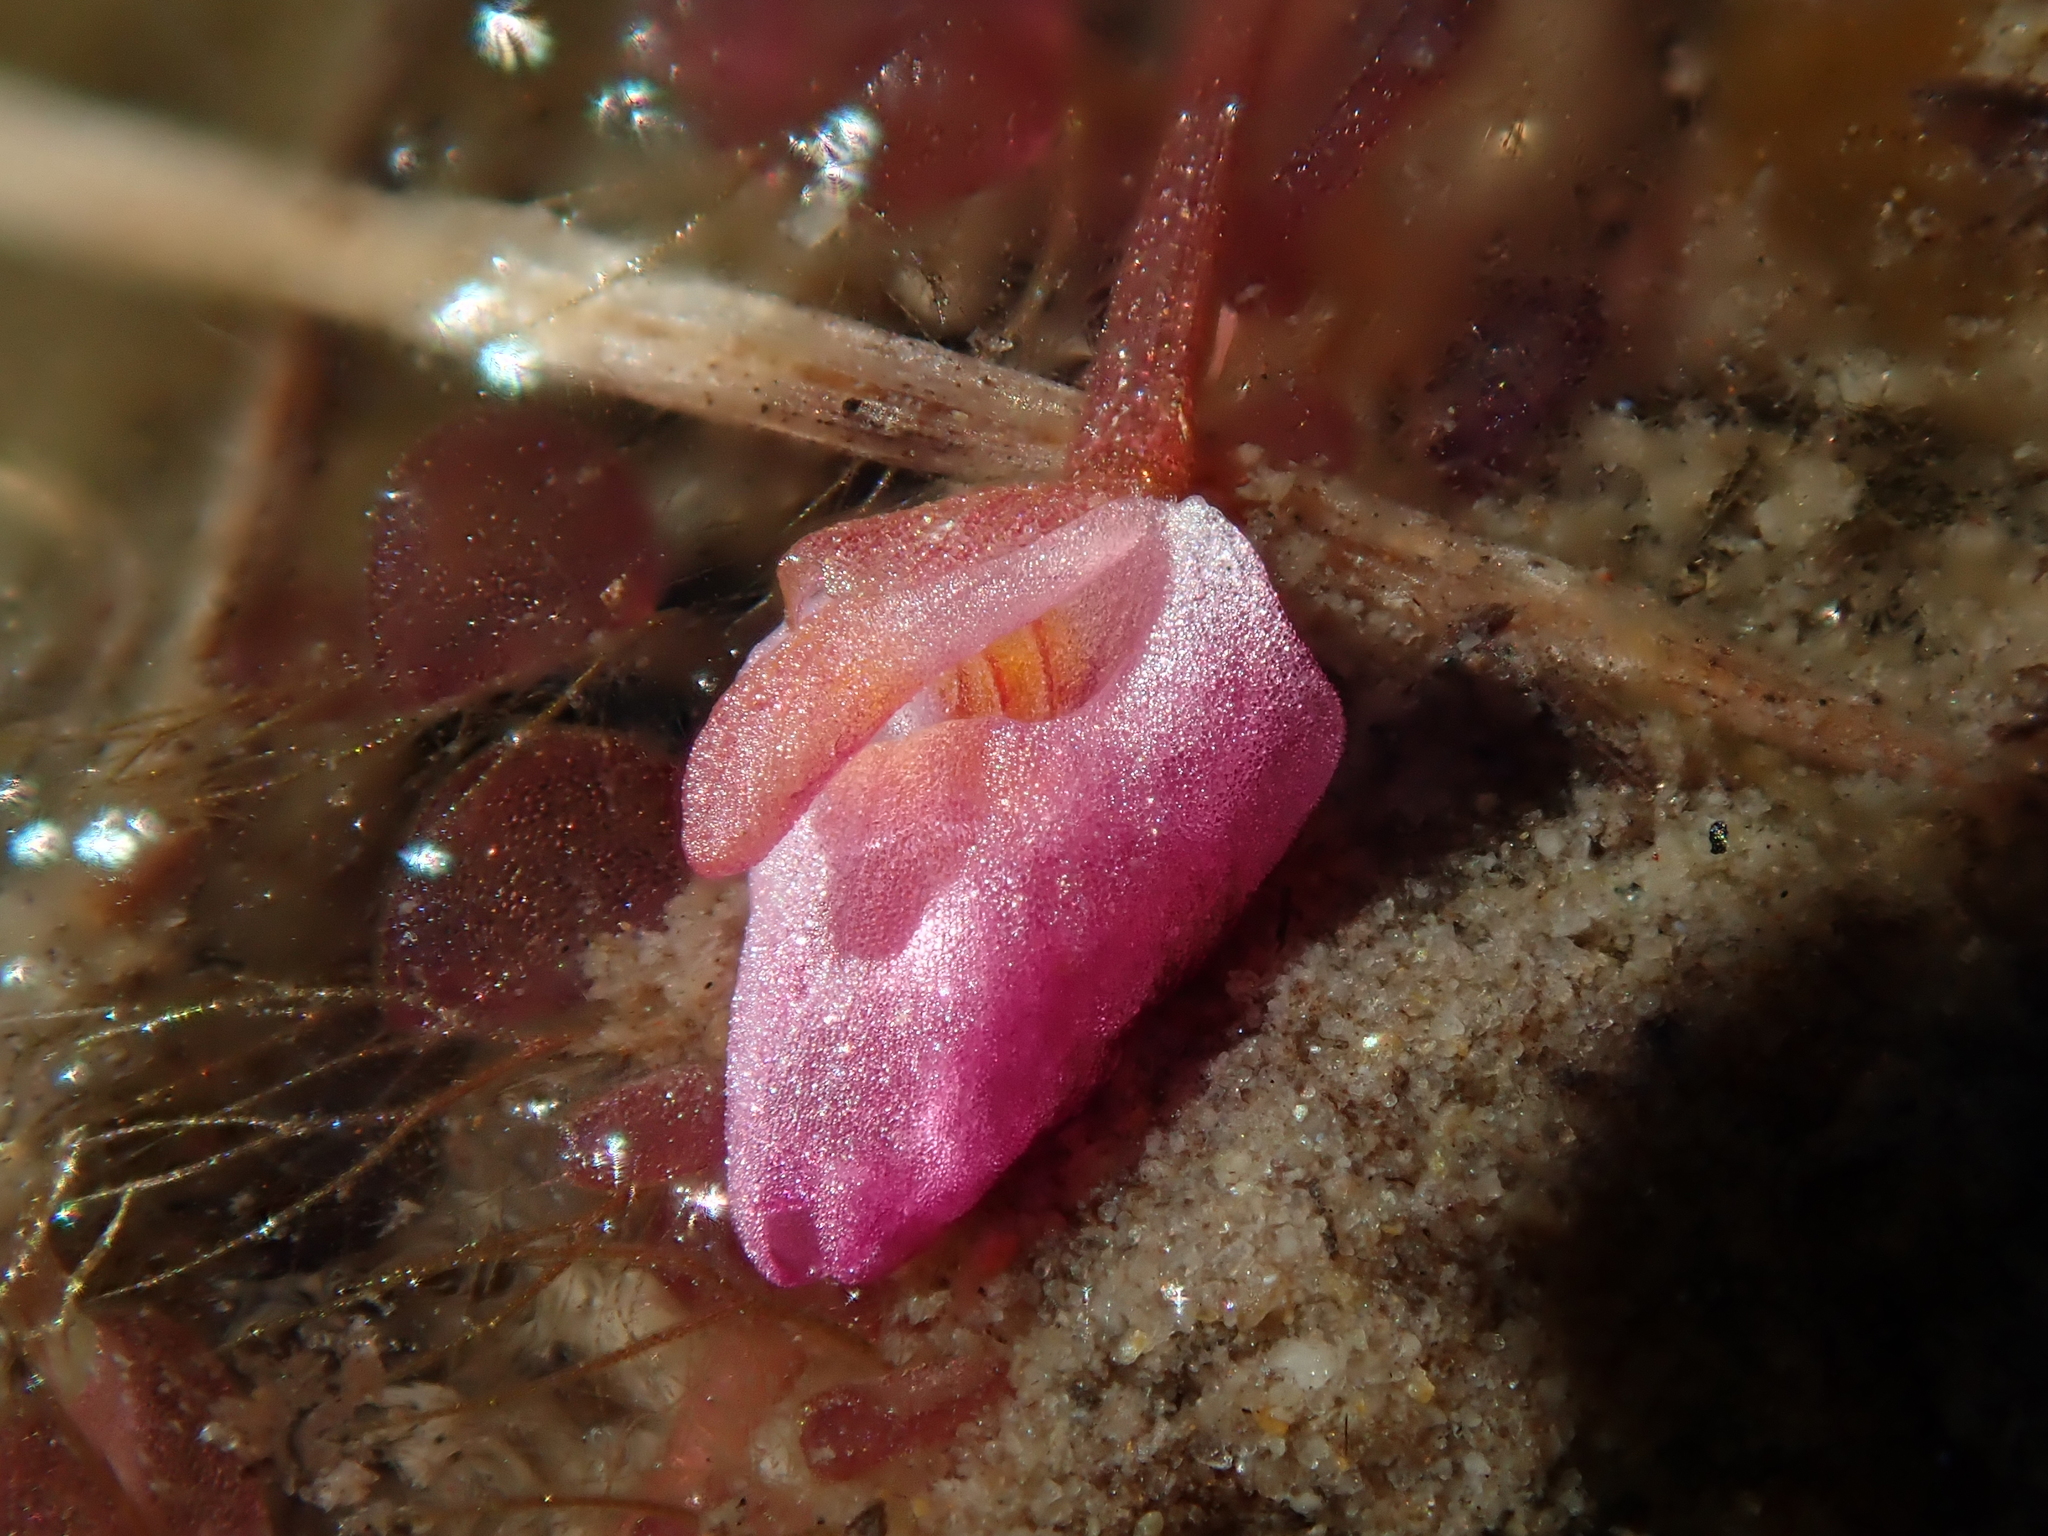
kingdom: Plantae
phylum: Tracheophyta
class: Magnoliopsida
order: Lamiales
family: Lentibulariaceae
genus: Utricularia
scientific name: Utricularia hydrocarpa
